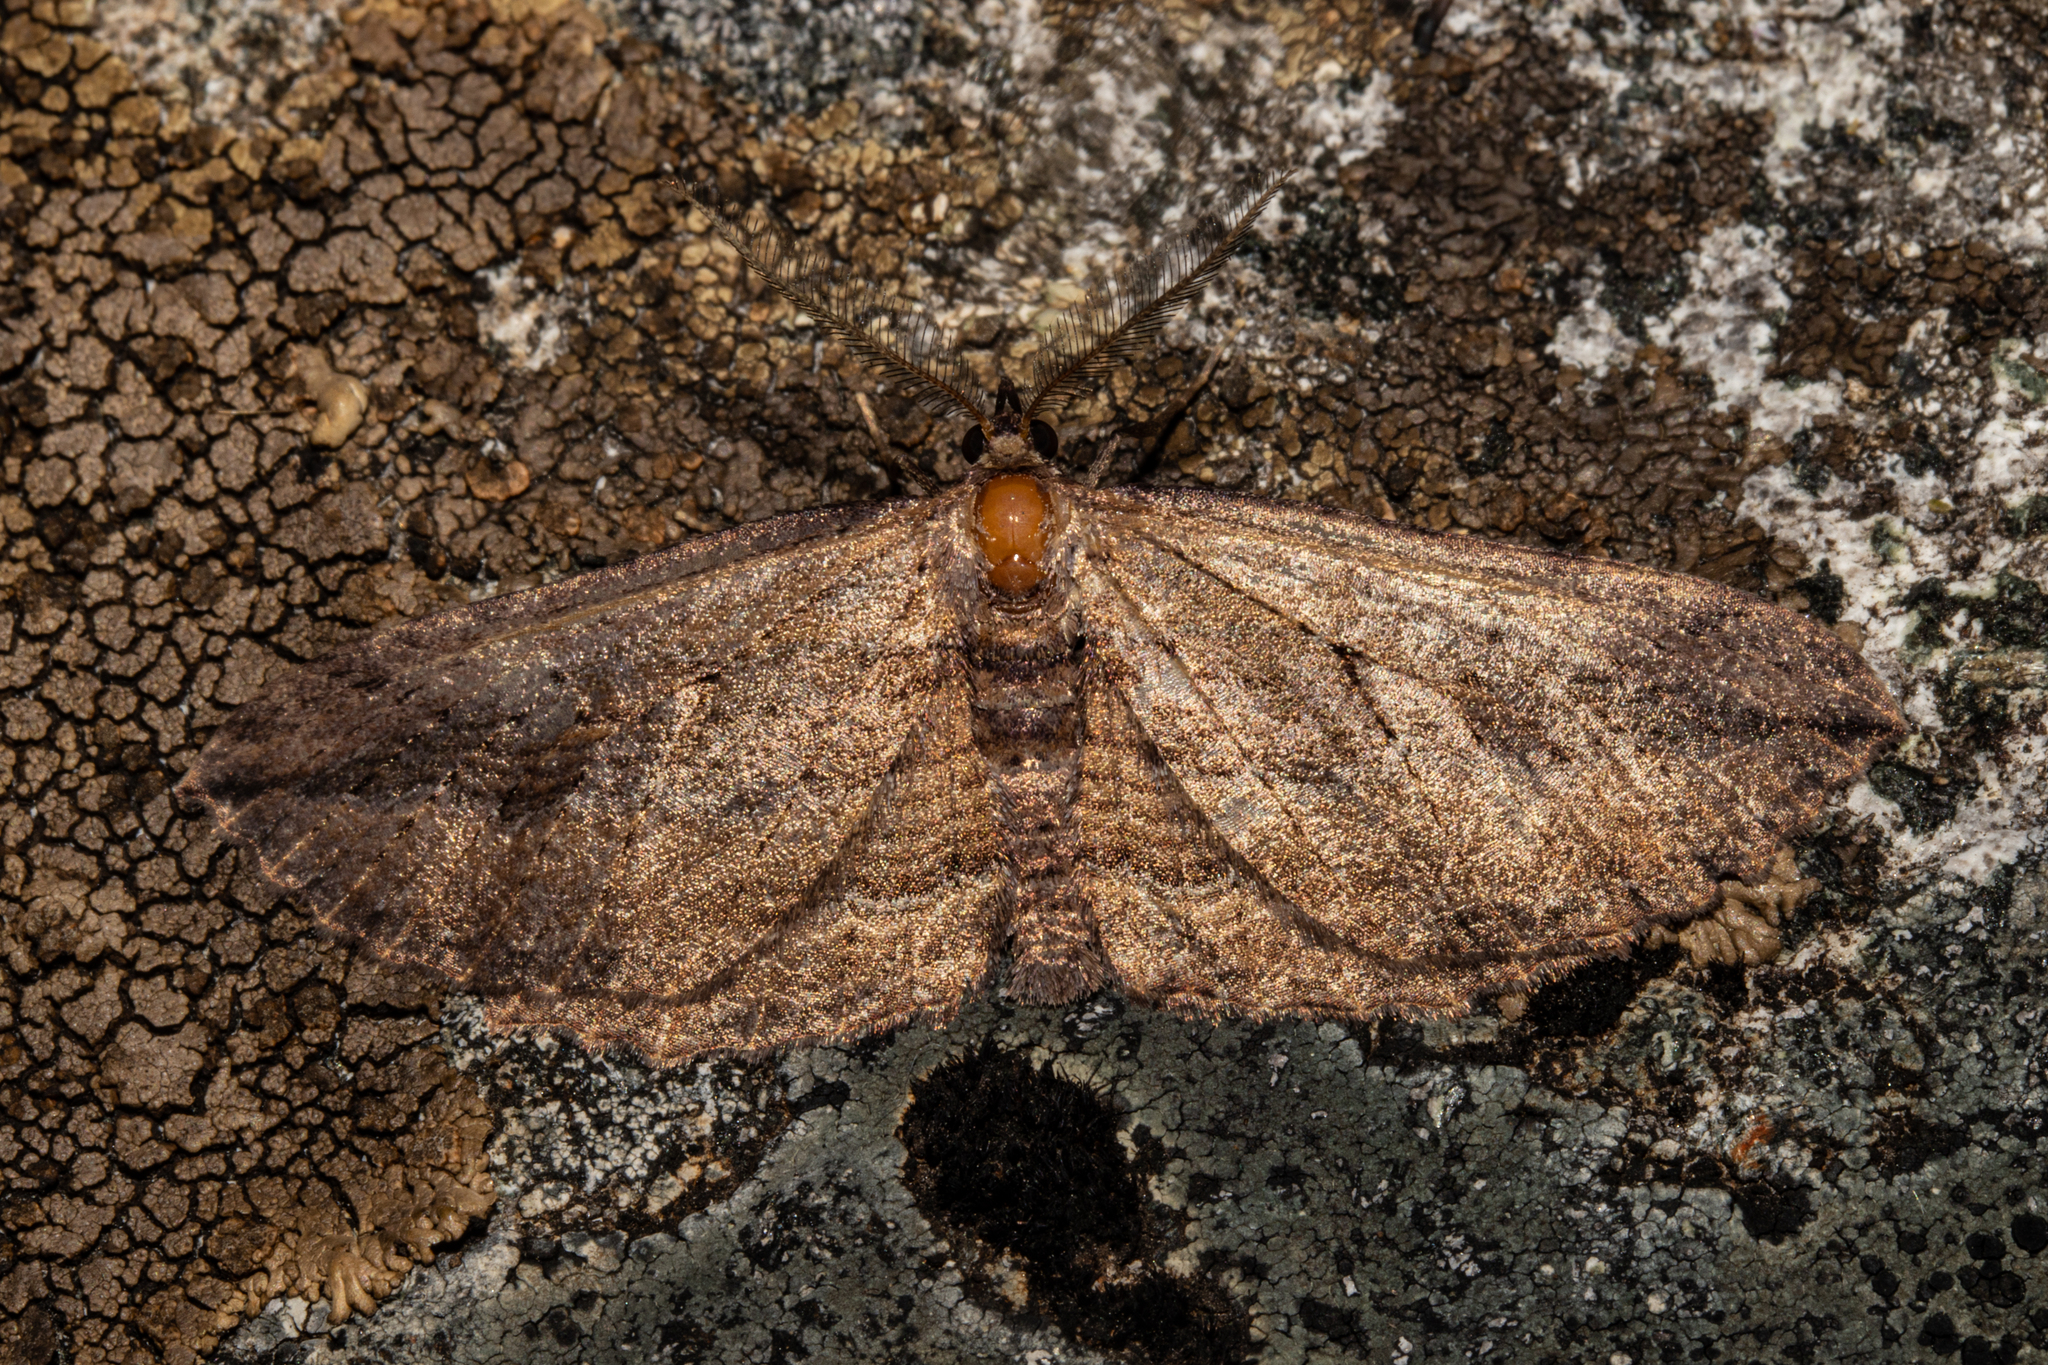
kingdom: Animalia
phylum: Arthropoda
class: Insecta
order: Lepidoptera
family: Geometridae
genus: Aponotoreas
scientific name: Aponotoreas dissimilis
